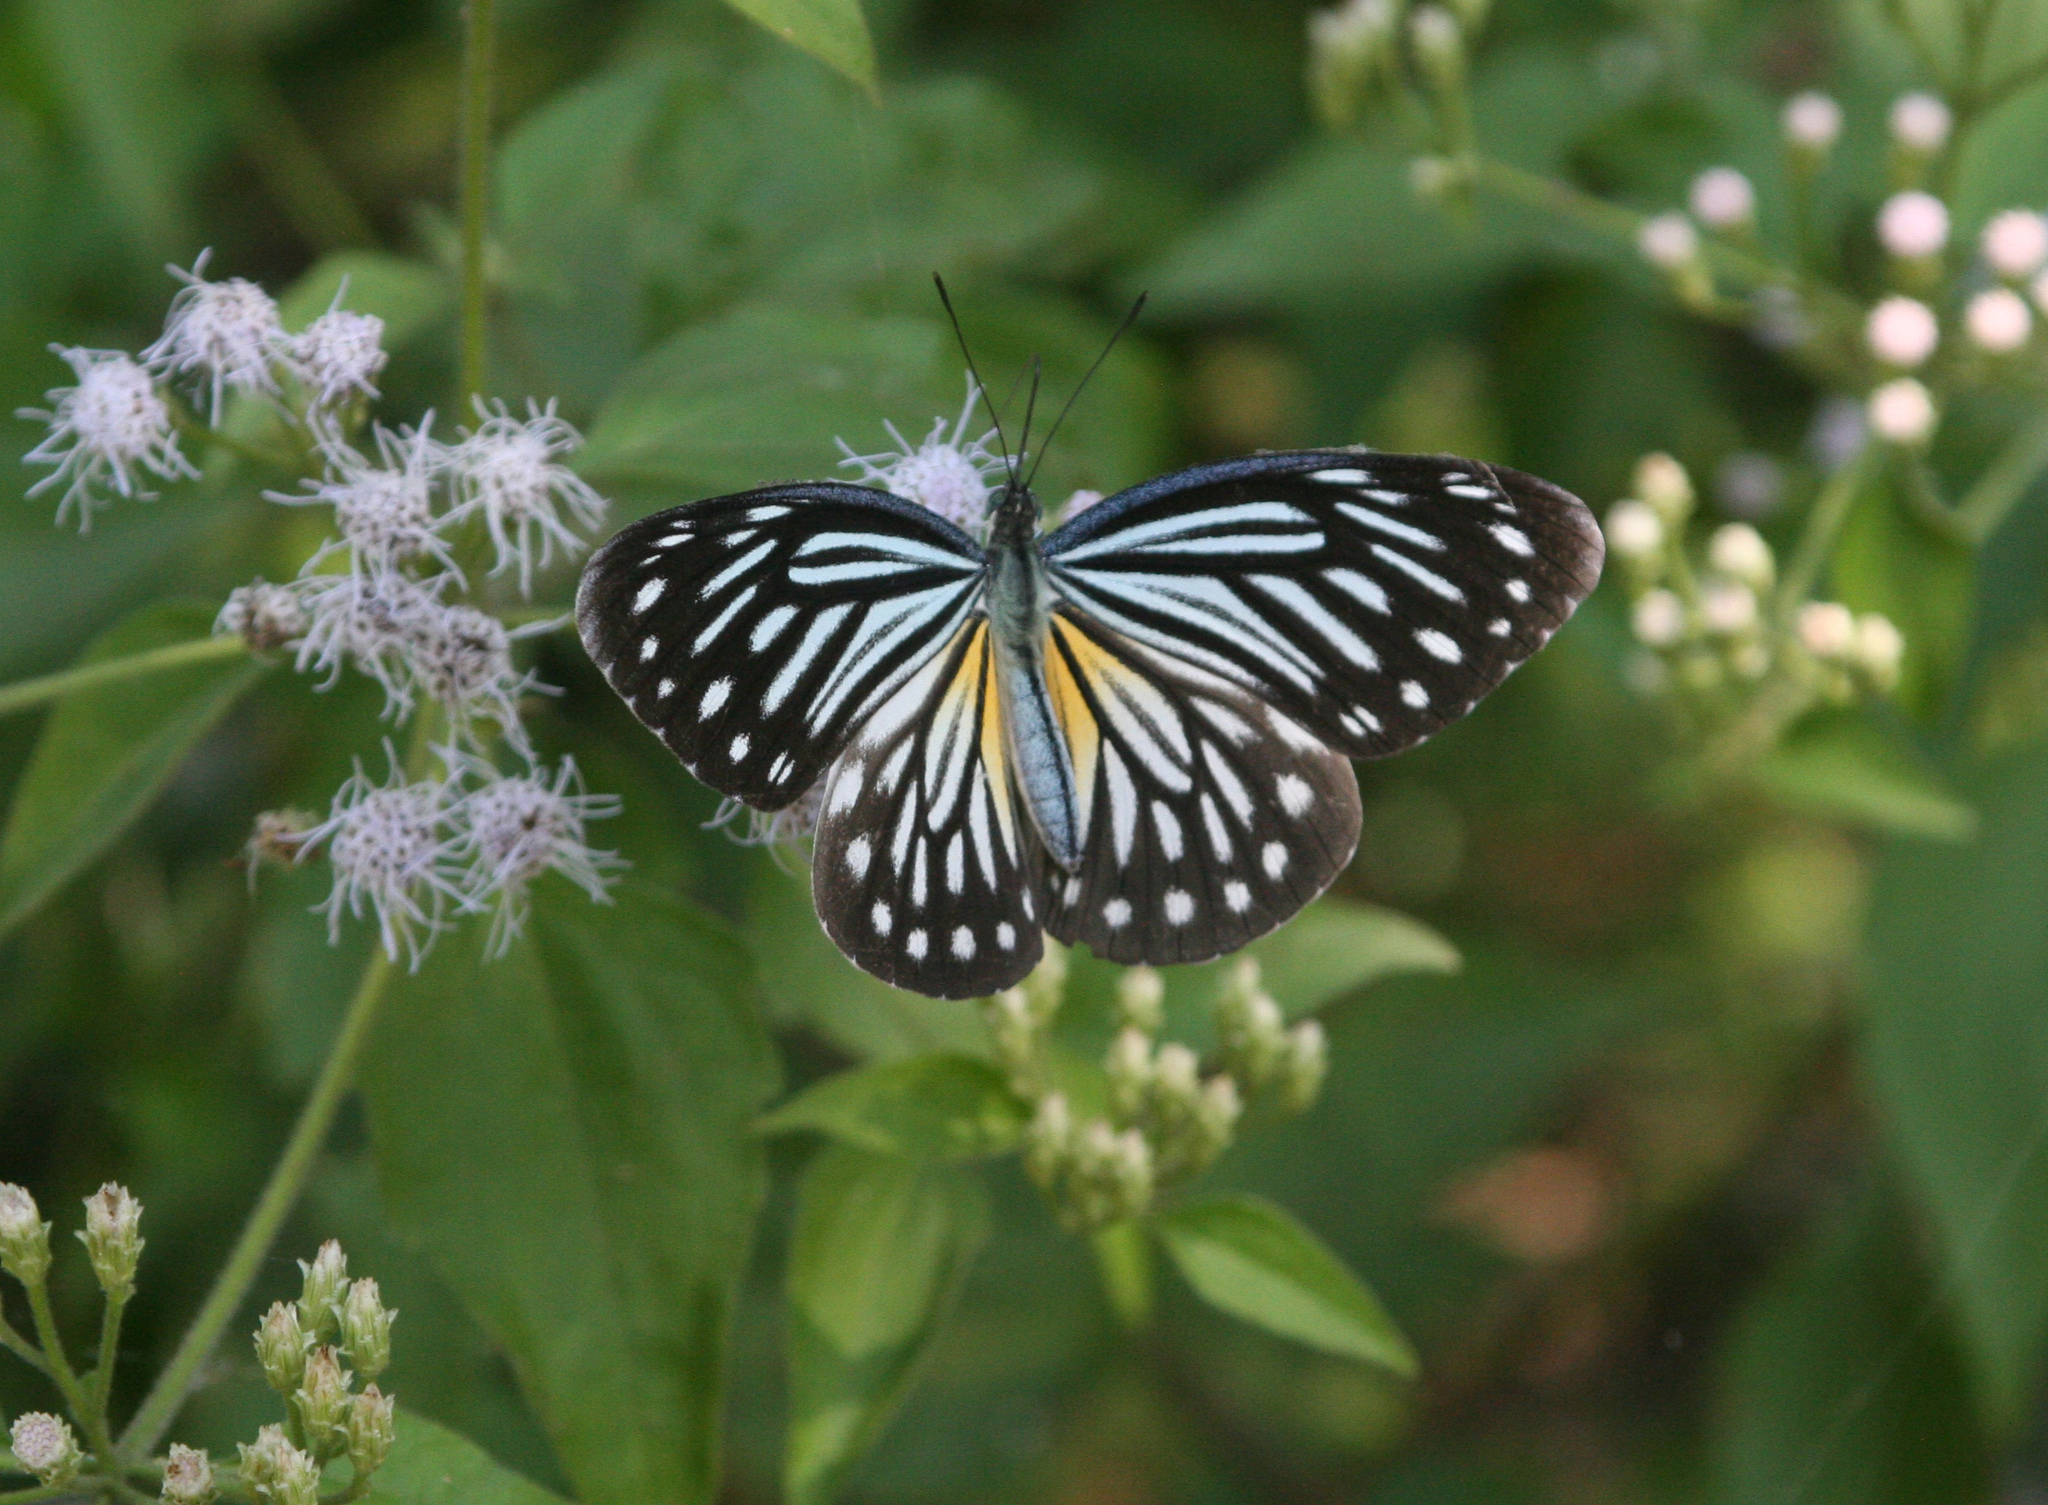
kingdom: Animalia
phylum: Arthropoda
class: Insecta
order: Lepidoptera
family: Pieridae
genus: Pareronia
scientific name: Pareronia hippia
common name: Indian wanderer
